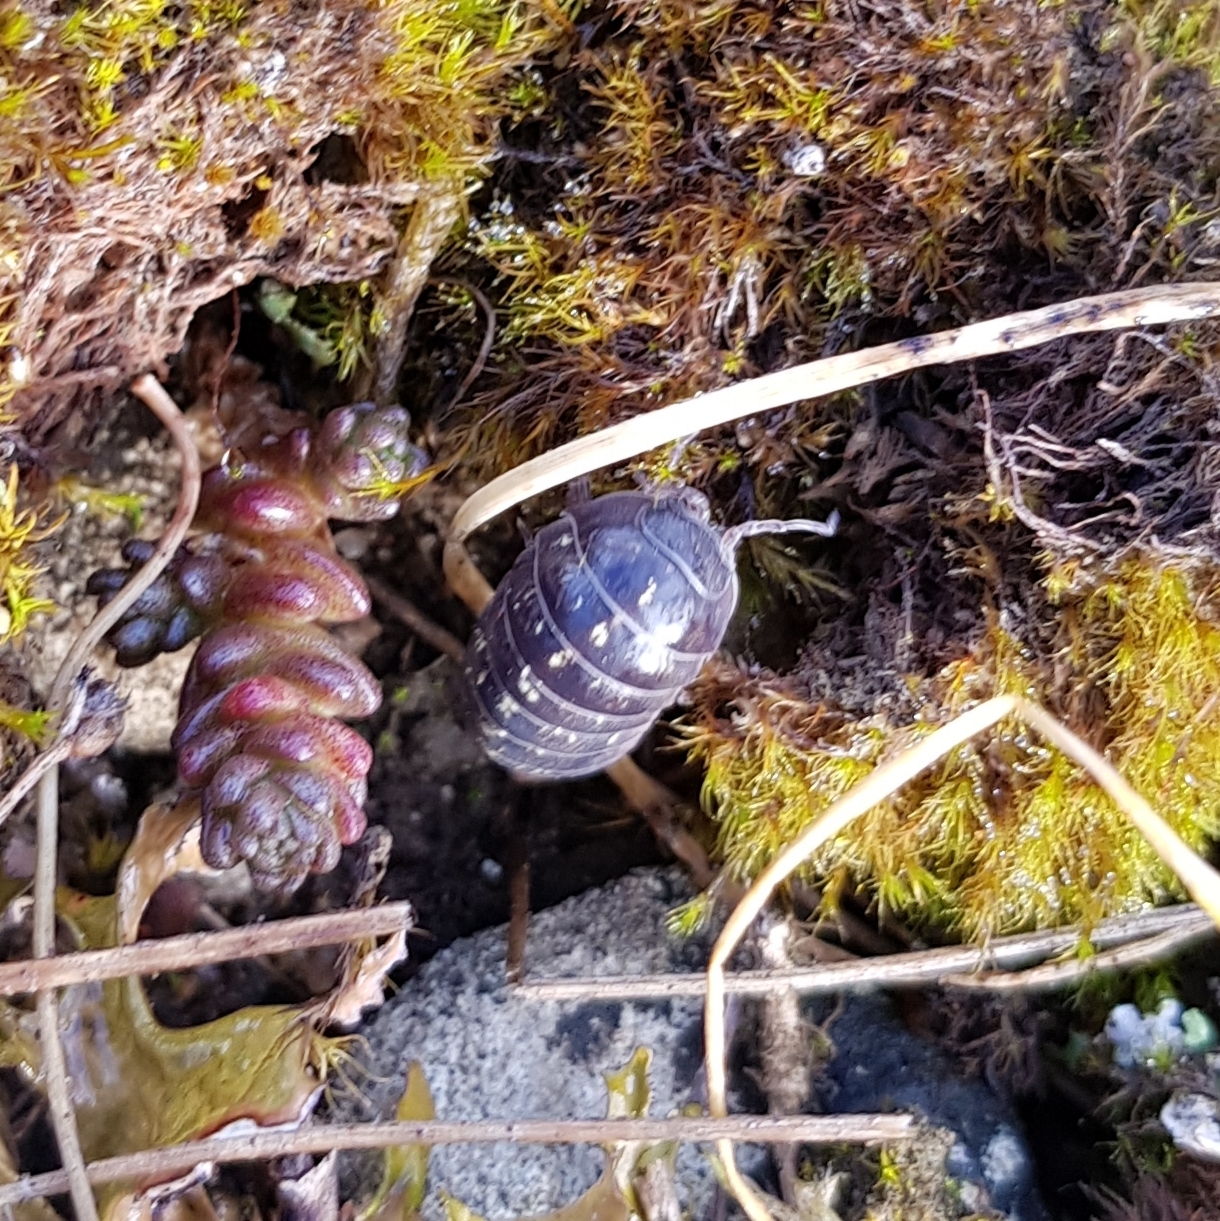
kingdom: Animalia
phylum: Arthropoda
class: Malacostraca
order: Isopoda
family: Armadillidiidae
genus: Armadillidium
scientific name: Armadillidium vulgare
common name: Common pill woodlouse
